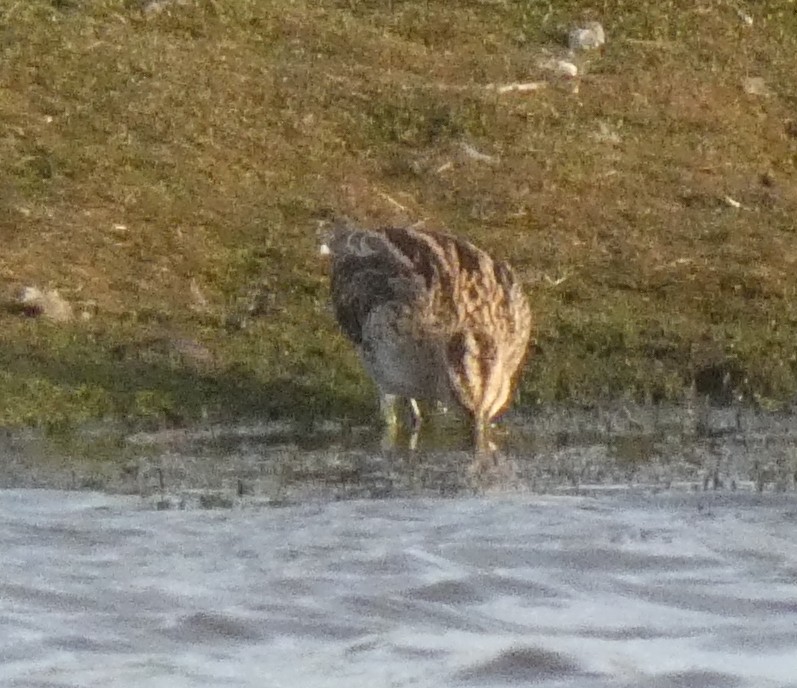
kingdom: Animalia
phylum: Chordata
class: Aves
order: Charadriiformes
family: Scolopacidae
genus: Gallinago
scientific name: Gallinago gallinago
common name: Common snipe
